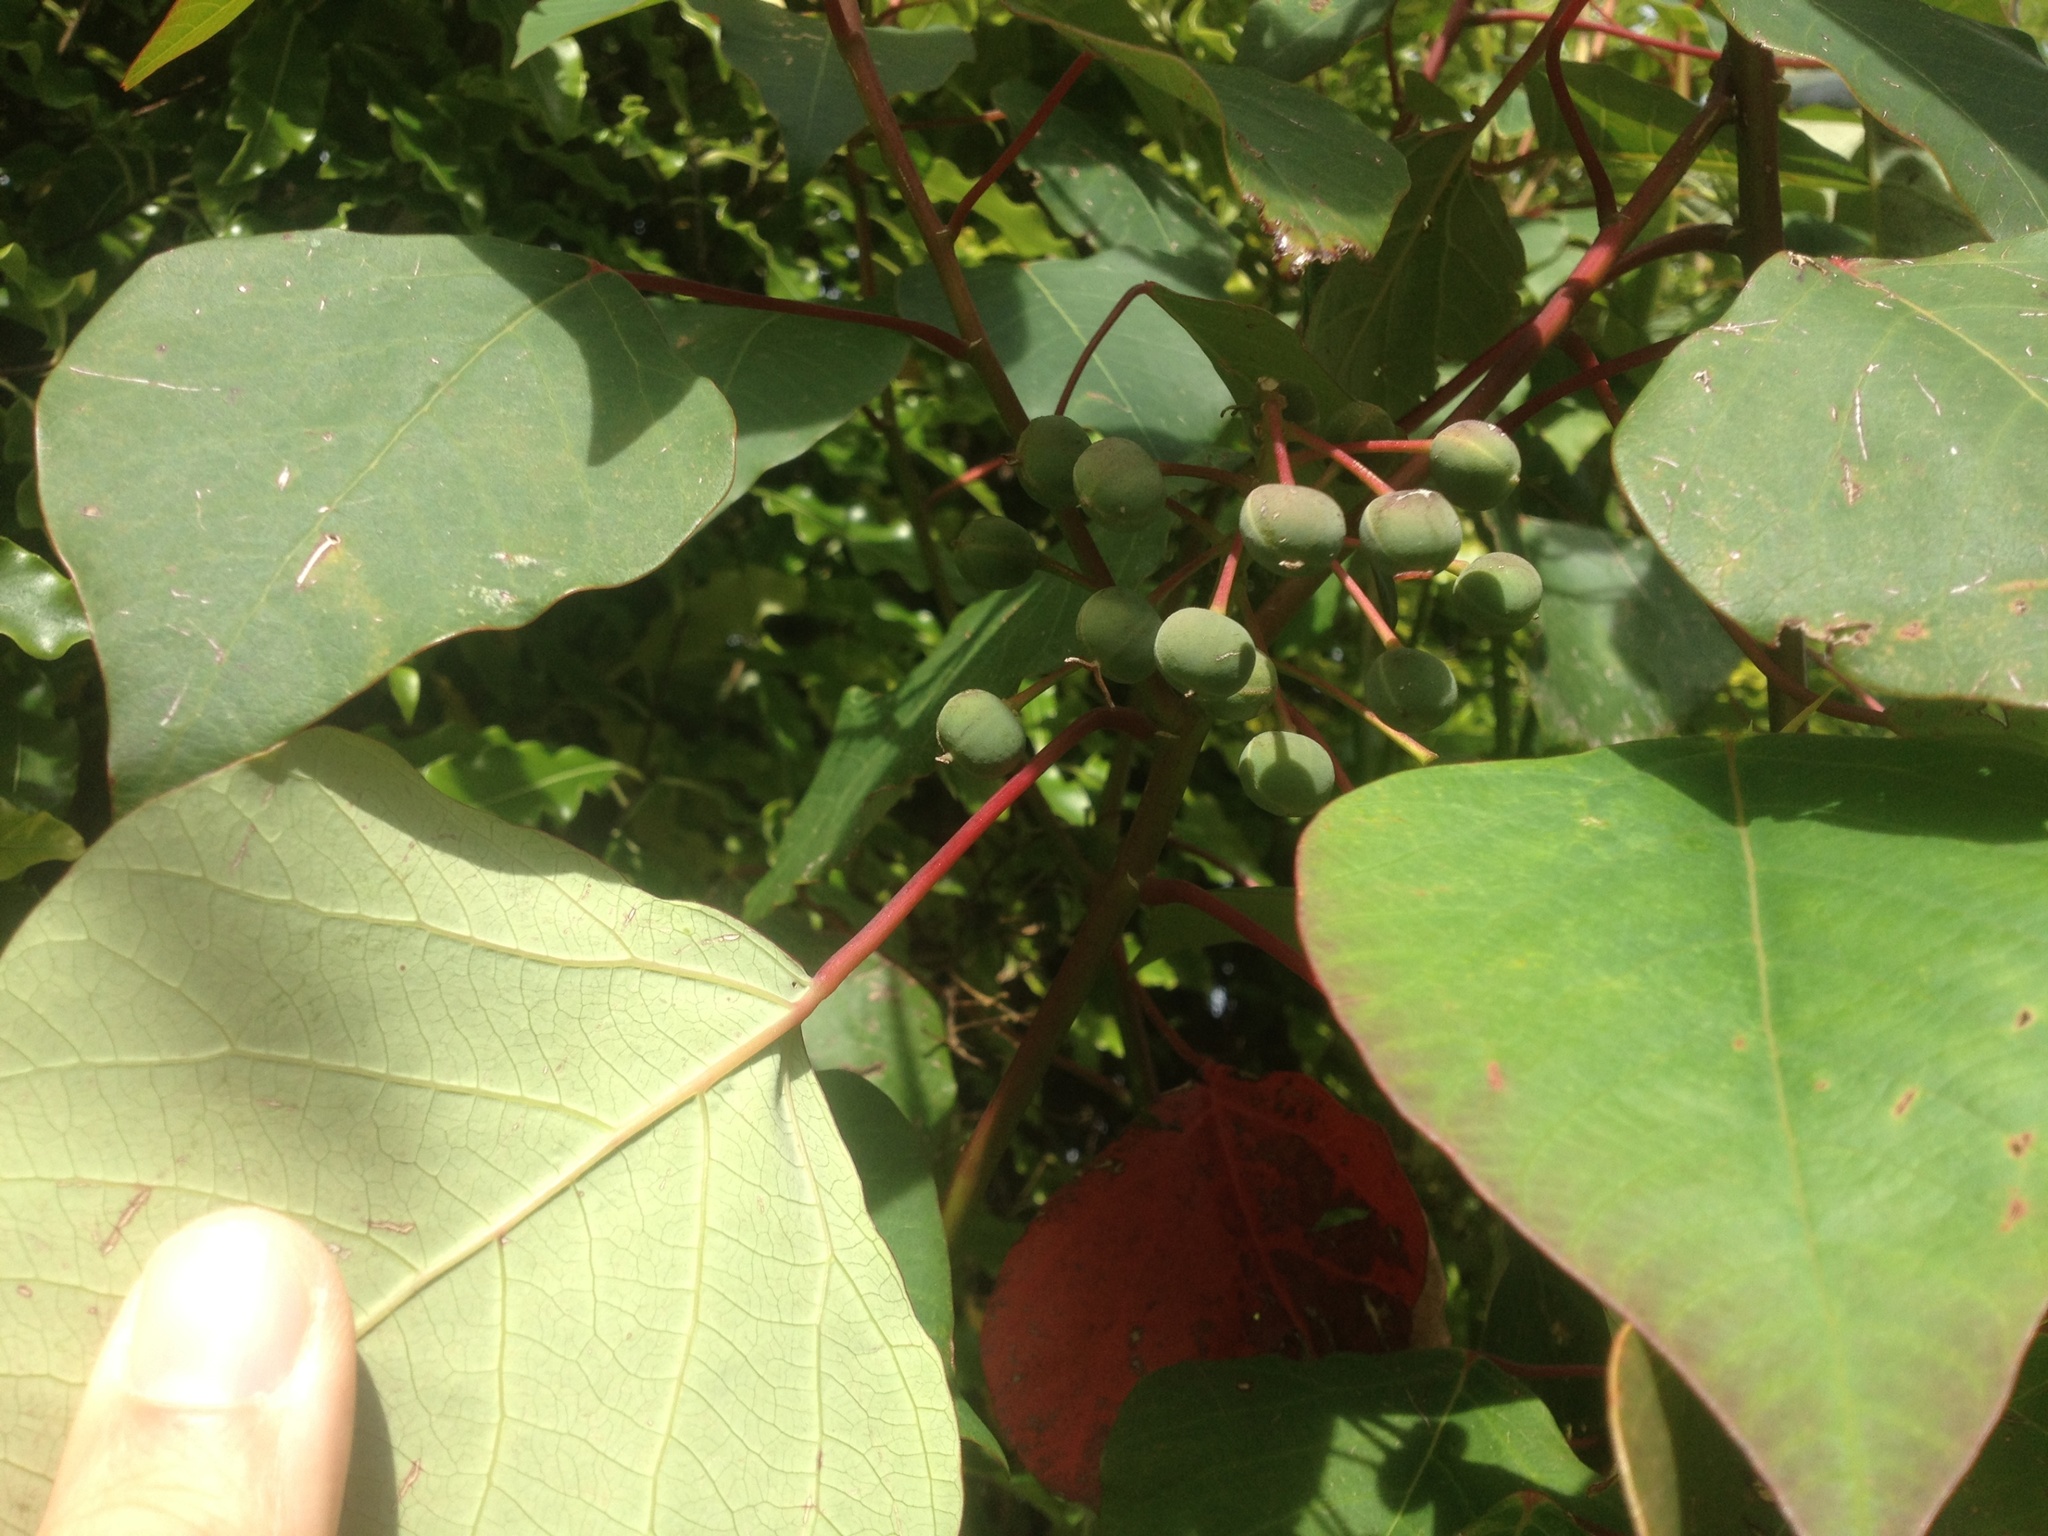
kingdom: Plantae
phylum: Tracheophyta
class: Magnoliopsida
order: Malpighiales
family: Euphorbiaceae
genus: Homalanthus
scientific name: Homalanthus populifolius
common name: Queensland poplar
